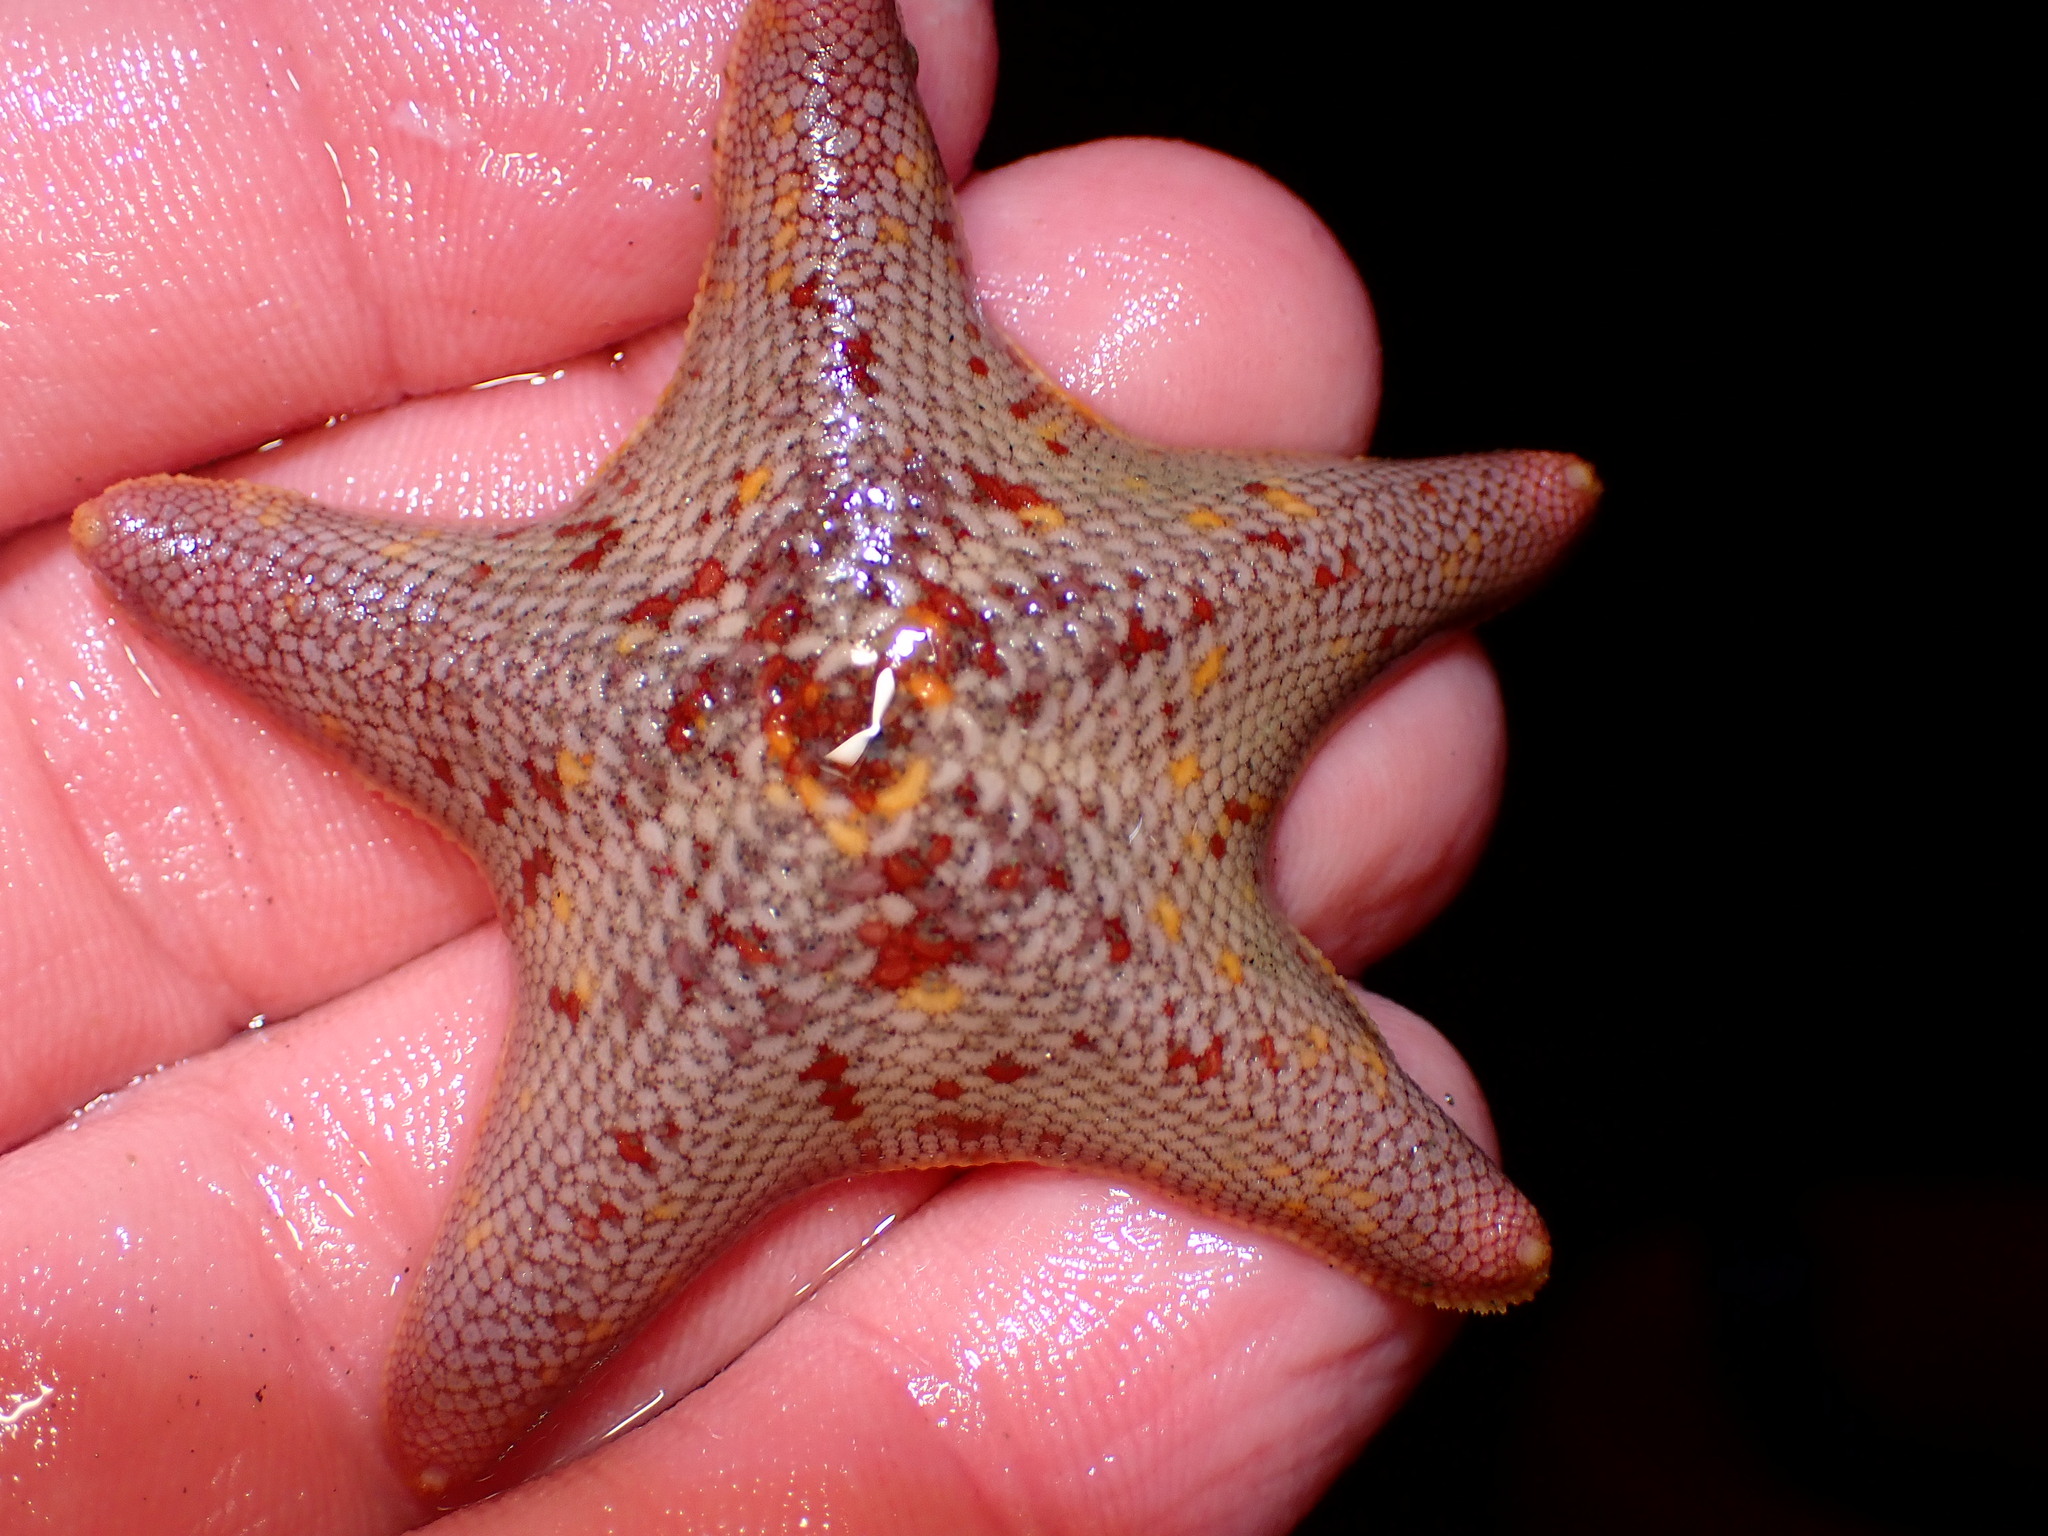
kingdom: Animalia
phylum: Echinodermata
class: Asteroidea
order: Valvatida
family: Asterinidae
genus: Patiria
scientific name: Patiria miniata
